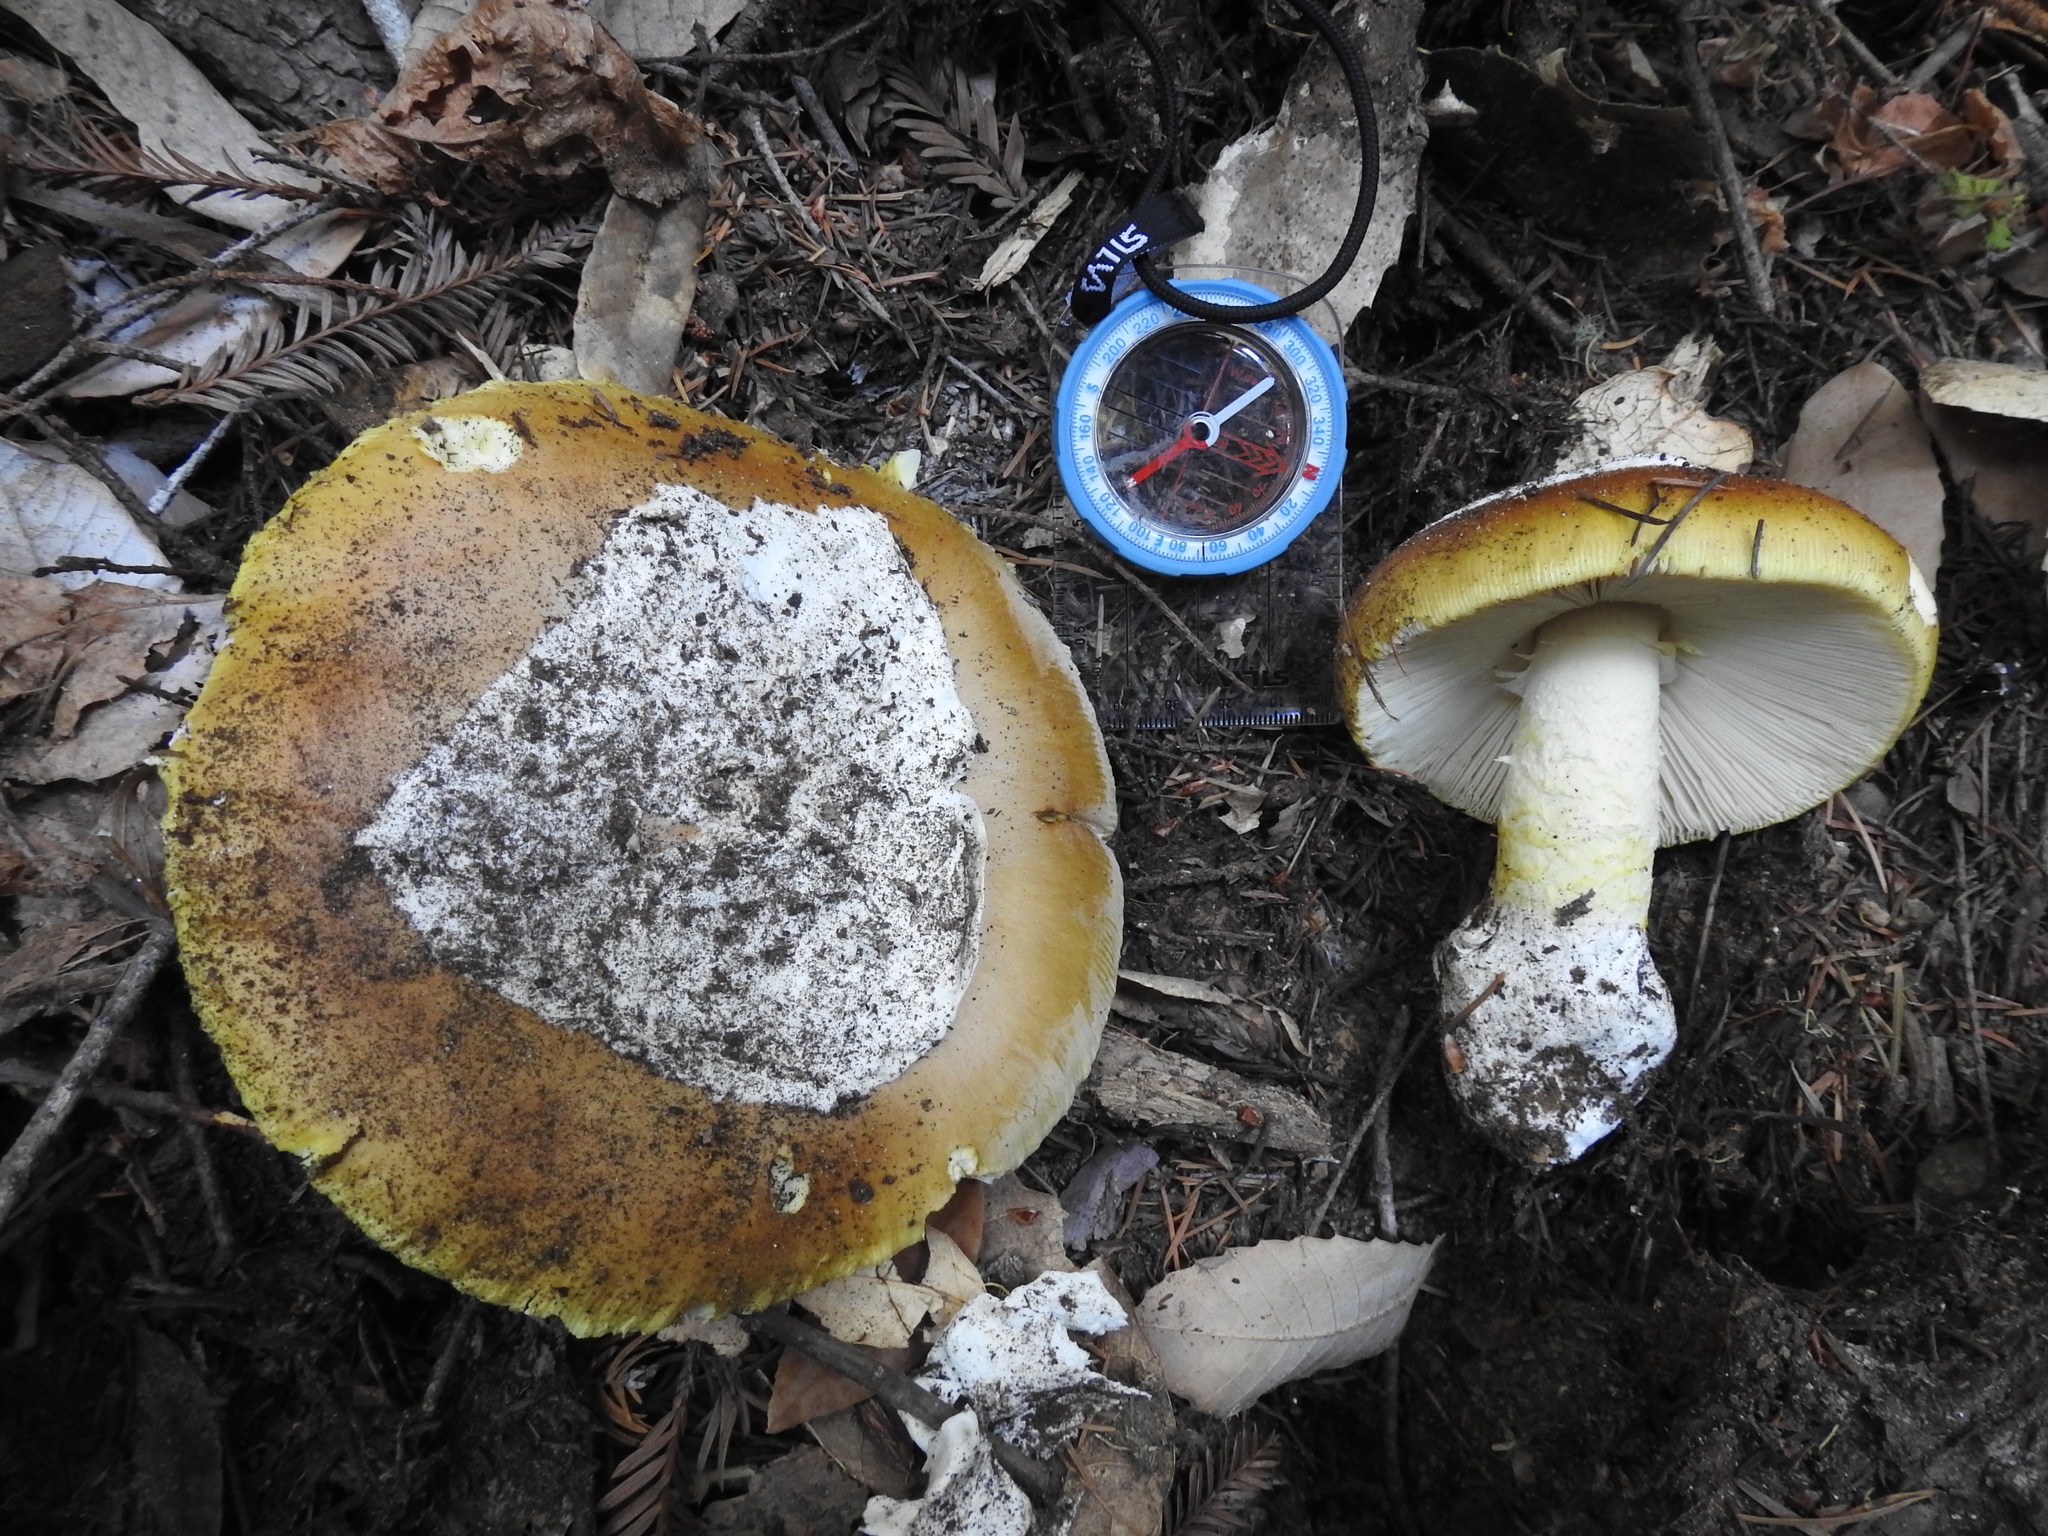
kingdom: Fungi
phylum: Basidiomycota
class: Agaricomycetes
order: Agaricales
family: Amanitaceae
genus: Amanita
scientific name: Amanita calyptroderma
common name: Coccora
